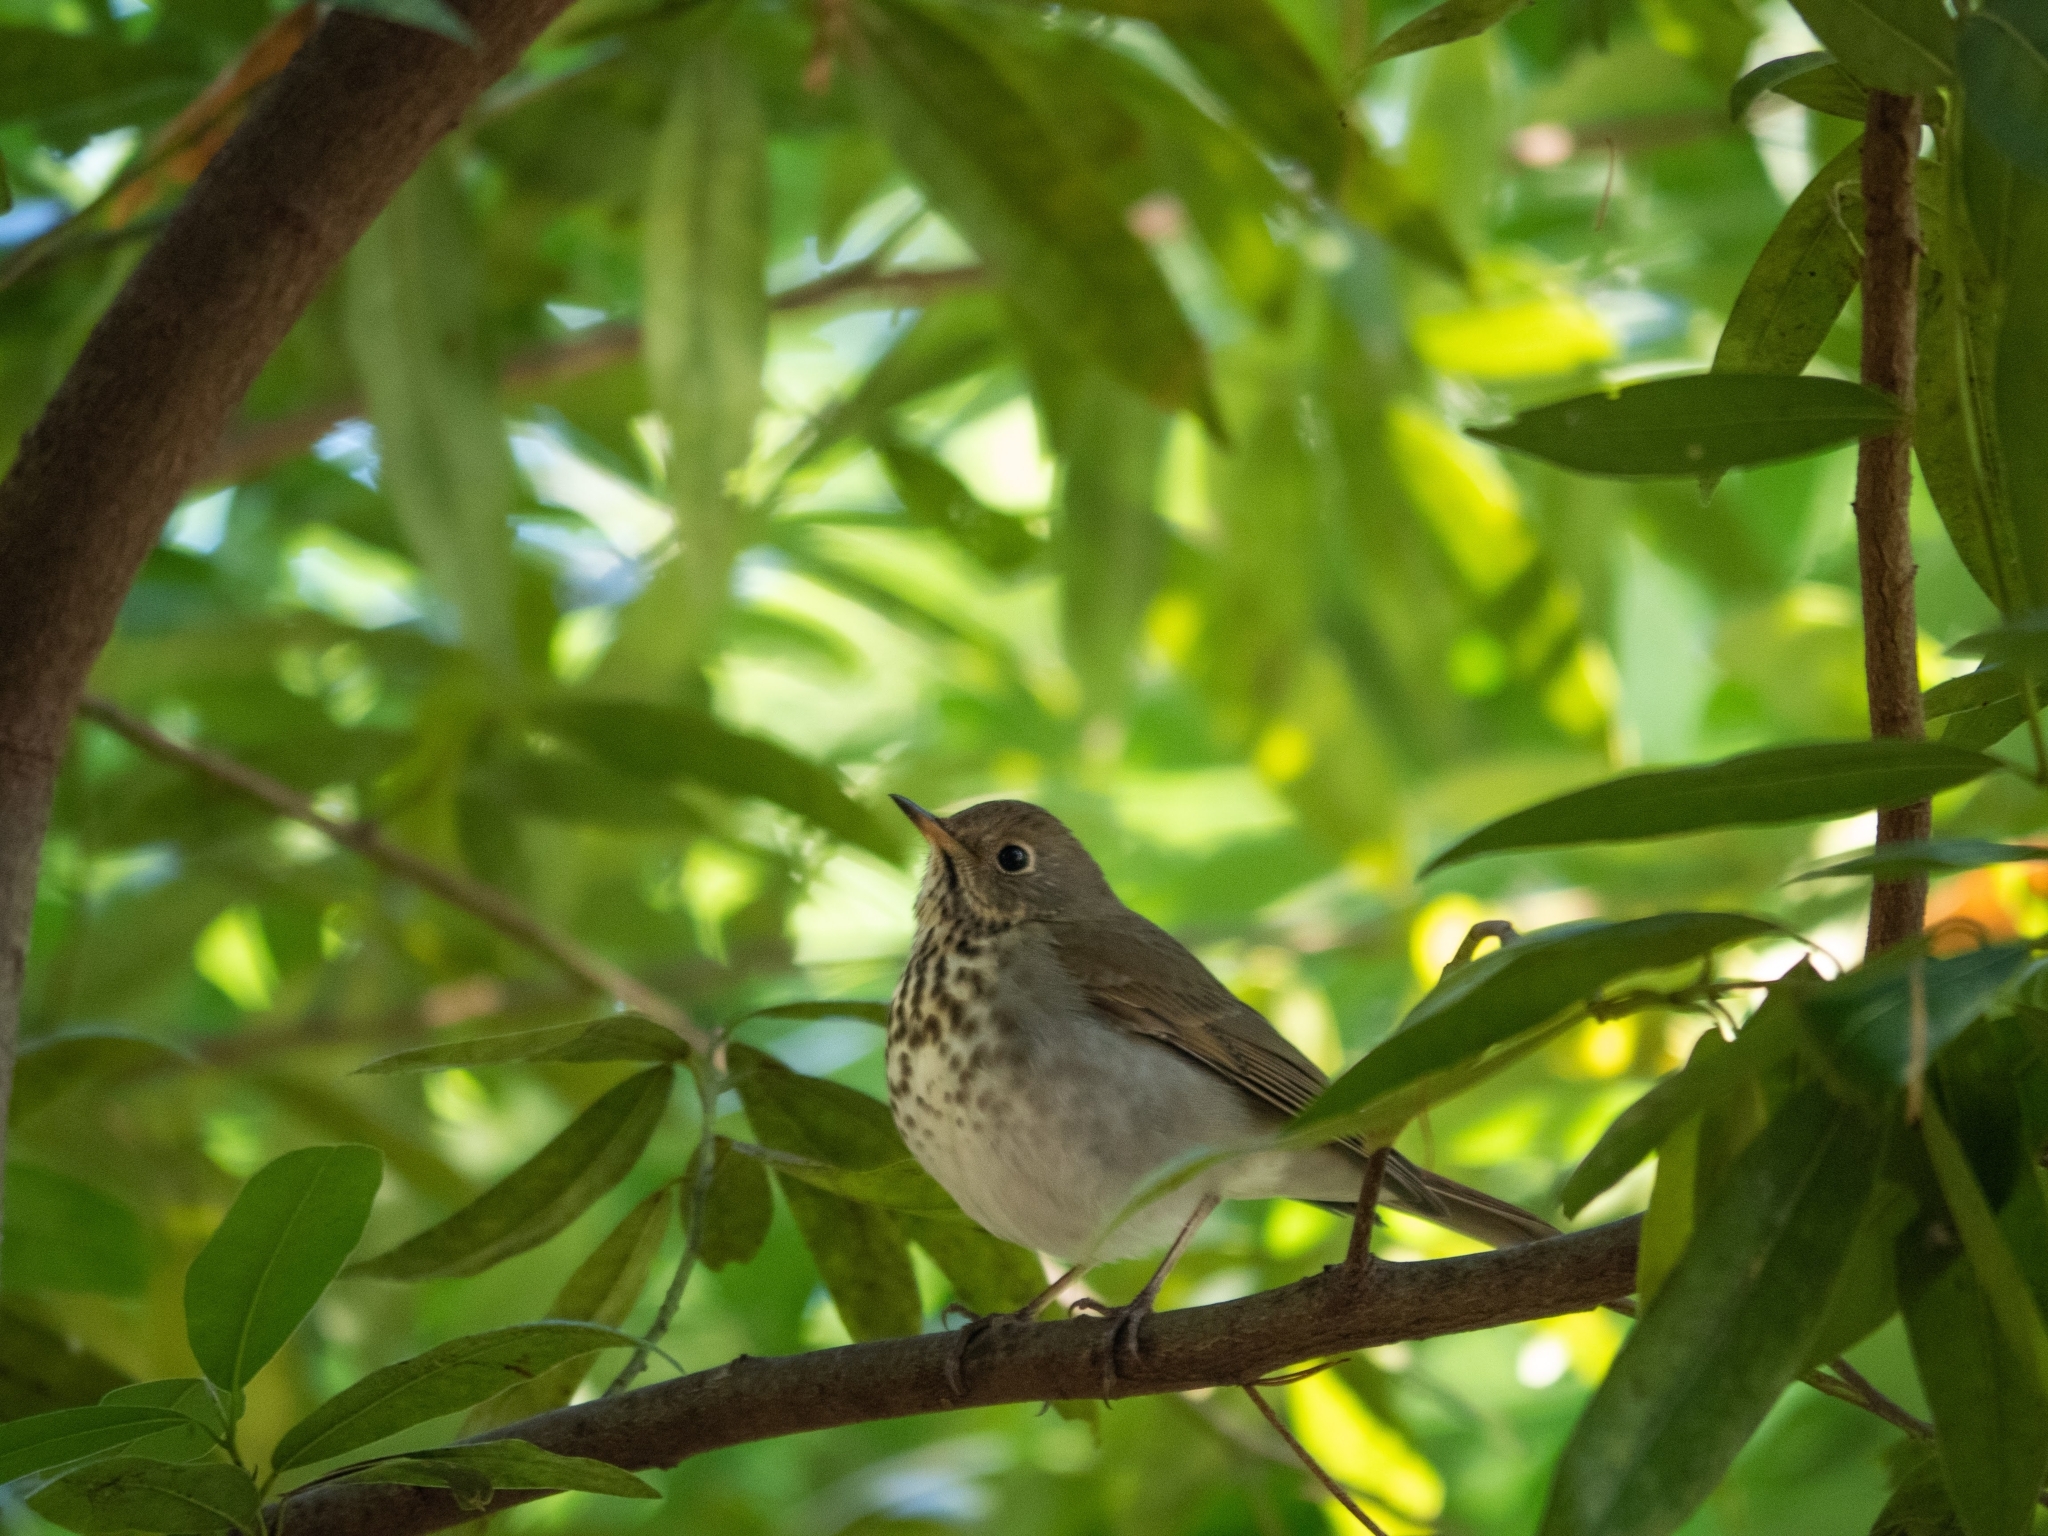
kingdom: Animalia
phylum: Chordata
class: Aves
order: Passeriformes
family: Turdidae
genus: Catharus
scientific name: Catharus guttatus
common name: Hermit thrush
